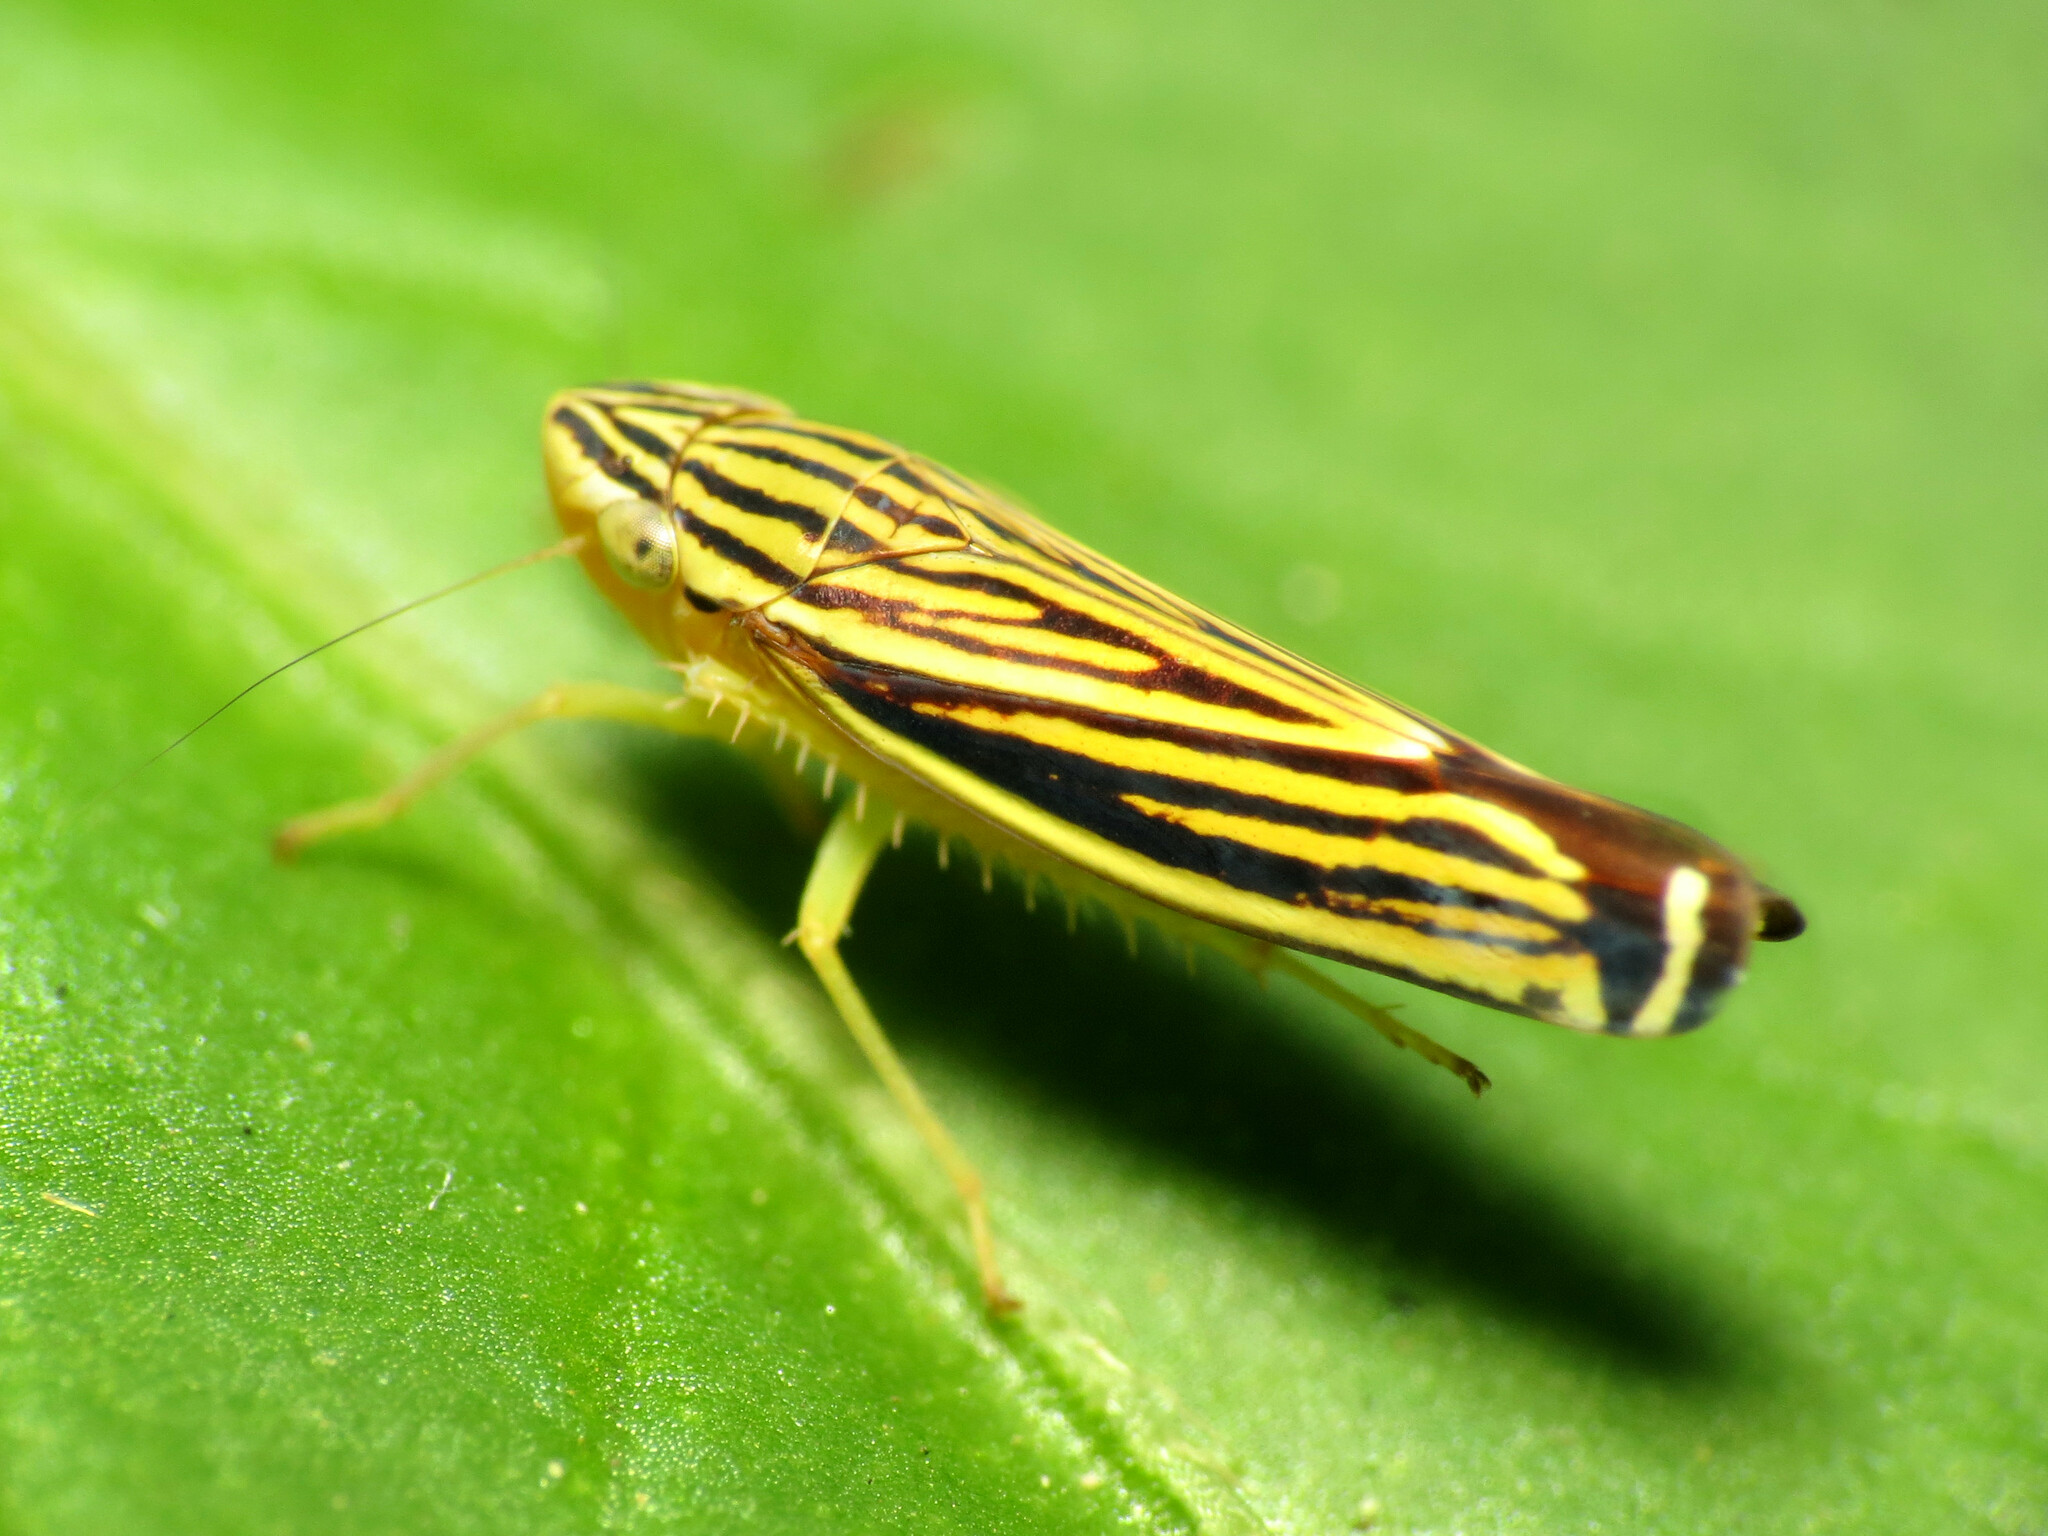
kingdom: Animalia
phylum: Arthropoda
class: Insecta
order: Hemiptera
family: Cicadellidae
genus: Sibovia
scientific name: Sibovia occatoria
